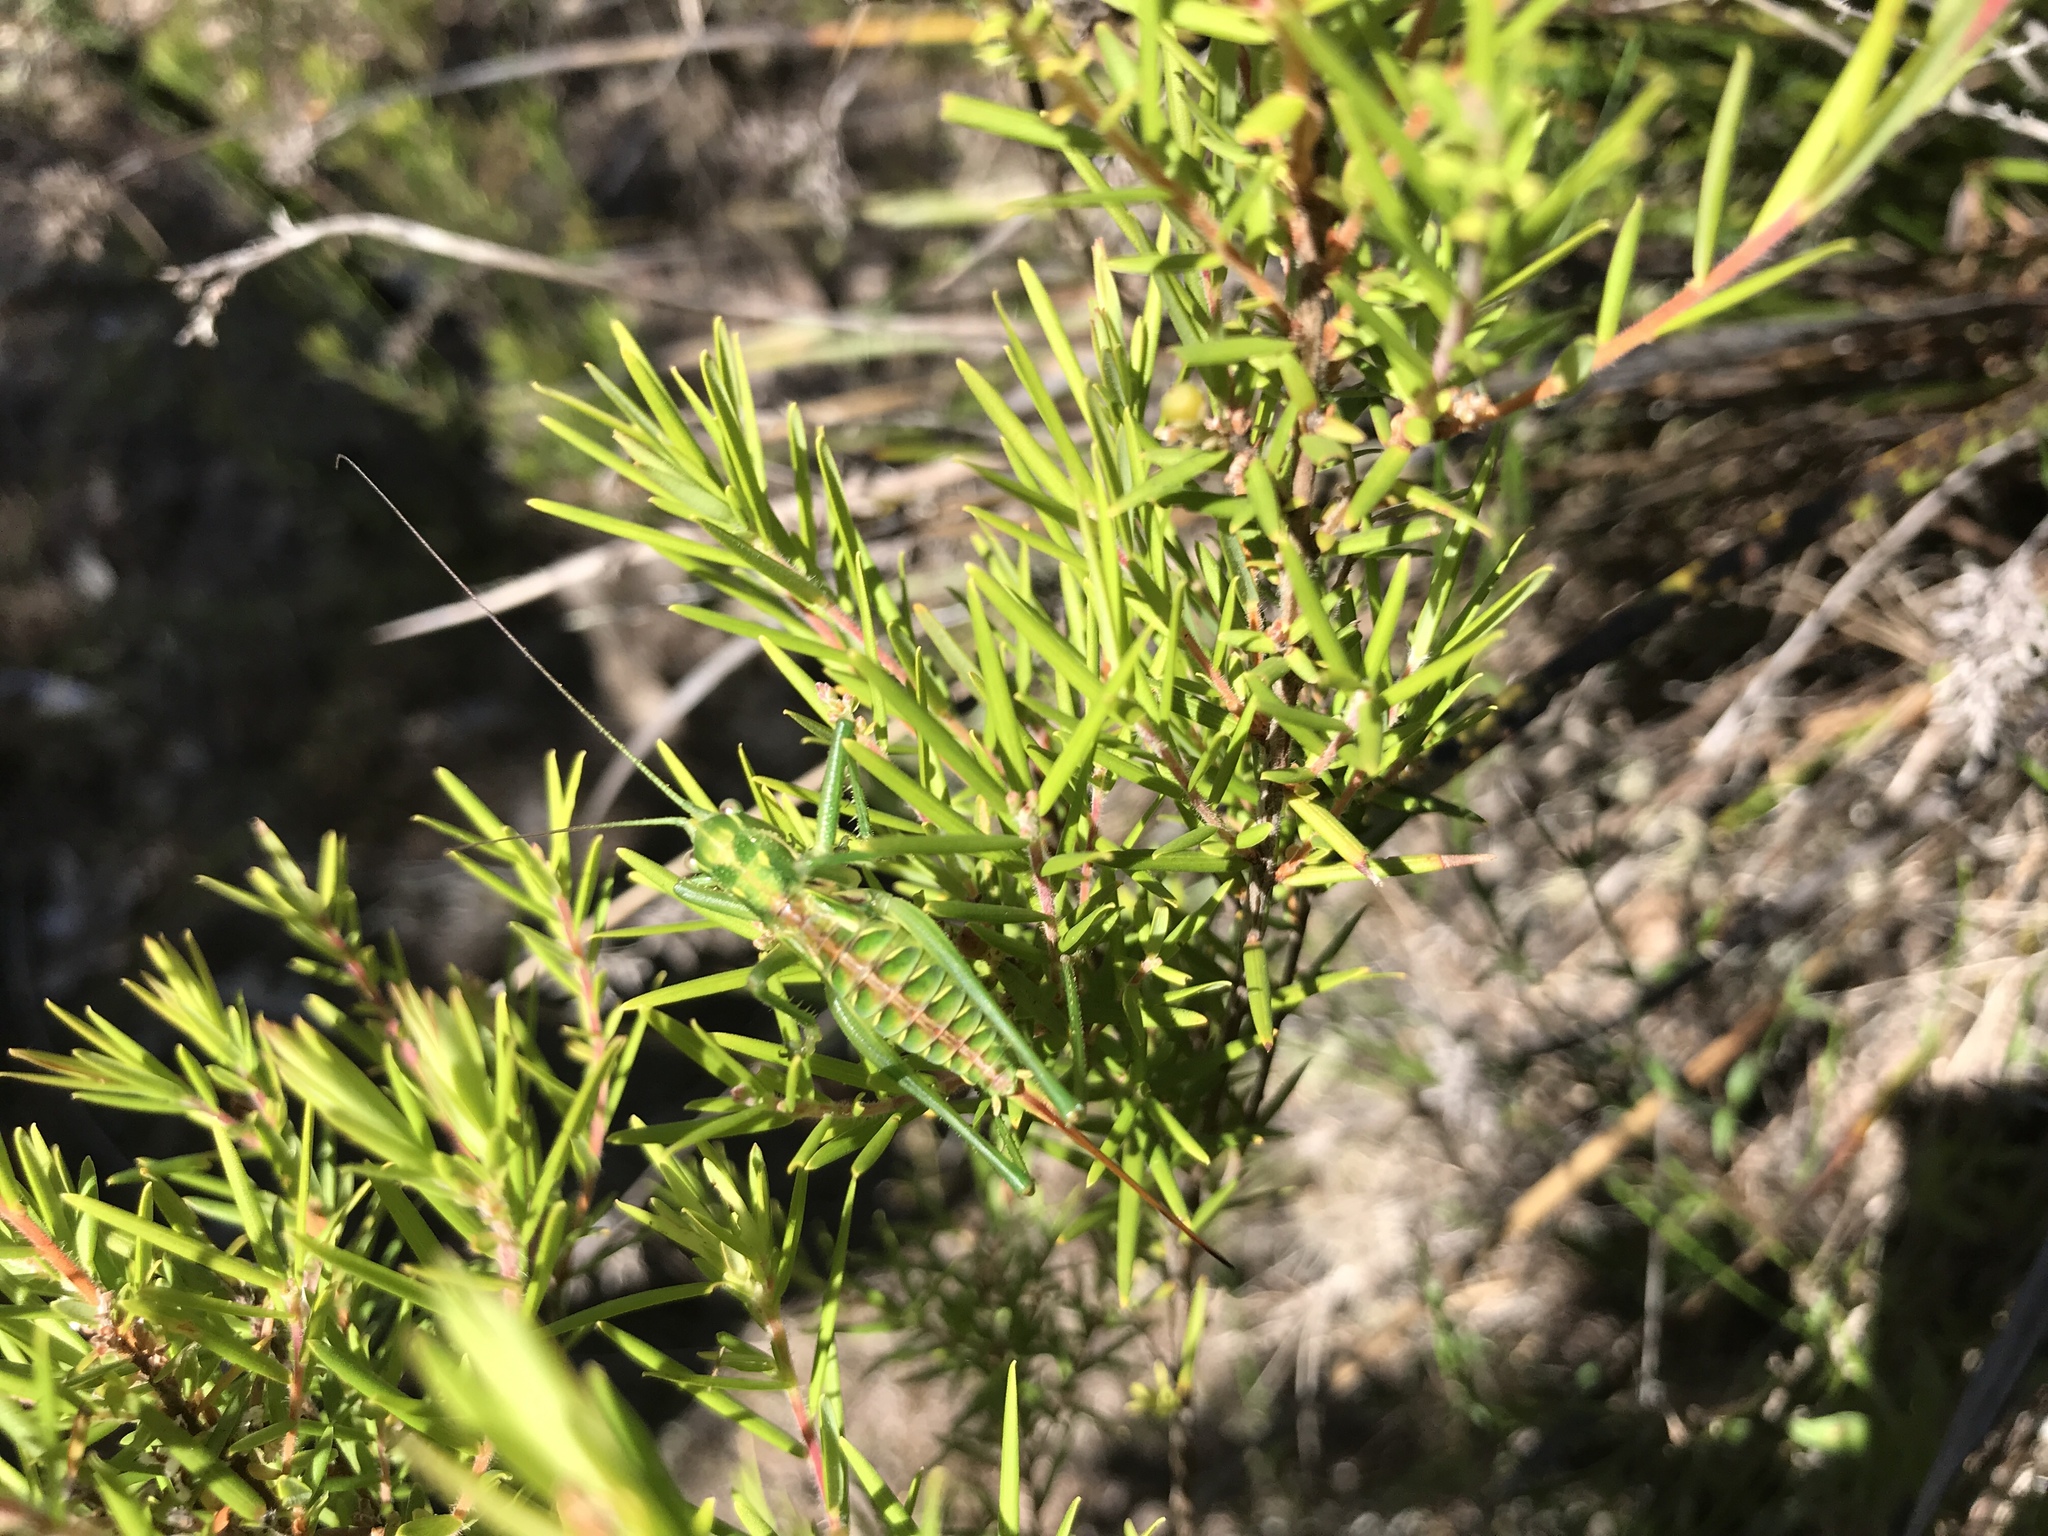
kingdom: Animalia
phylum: Arthropoda
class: Insecta
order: Orthoptera
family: Tettigoniidae
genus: Hemisaga
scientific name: Hemisaga mullaya
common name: Companion sluggish katydid
